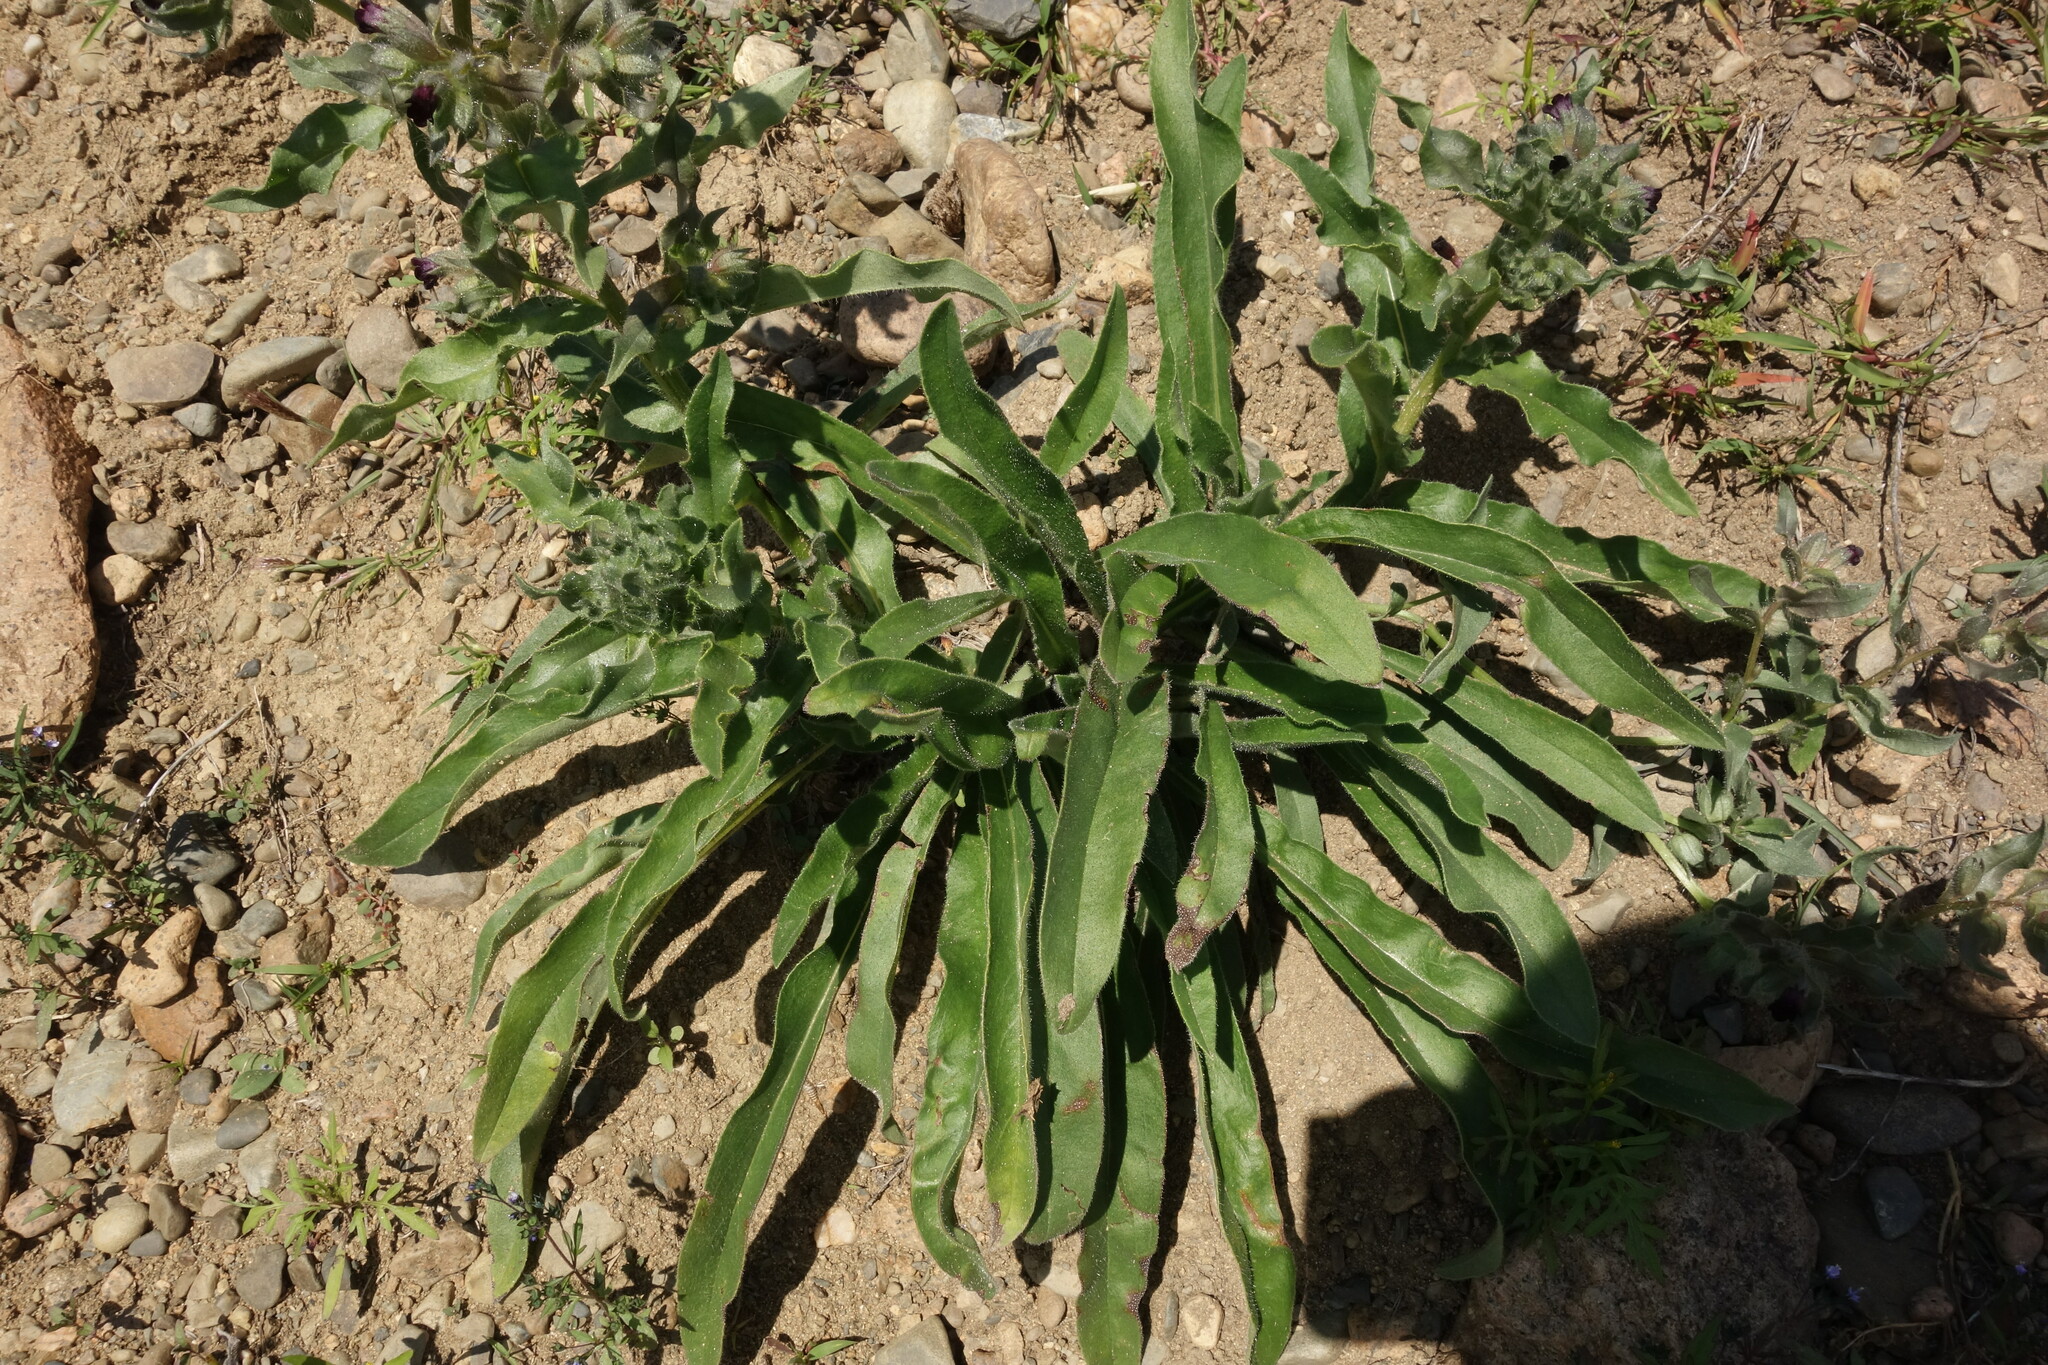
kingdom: Plantae
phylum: Tracheophyta
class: Magnoliopsida
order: Boraginales
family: Boraginaceae
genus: Nonea
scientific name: Nonea pulla
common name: Brown nonea
